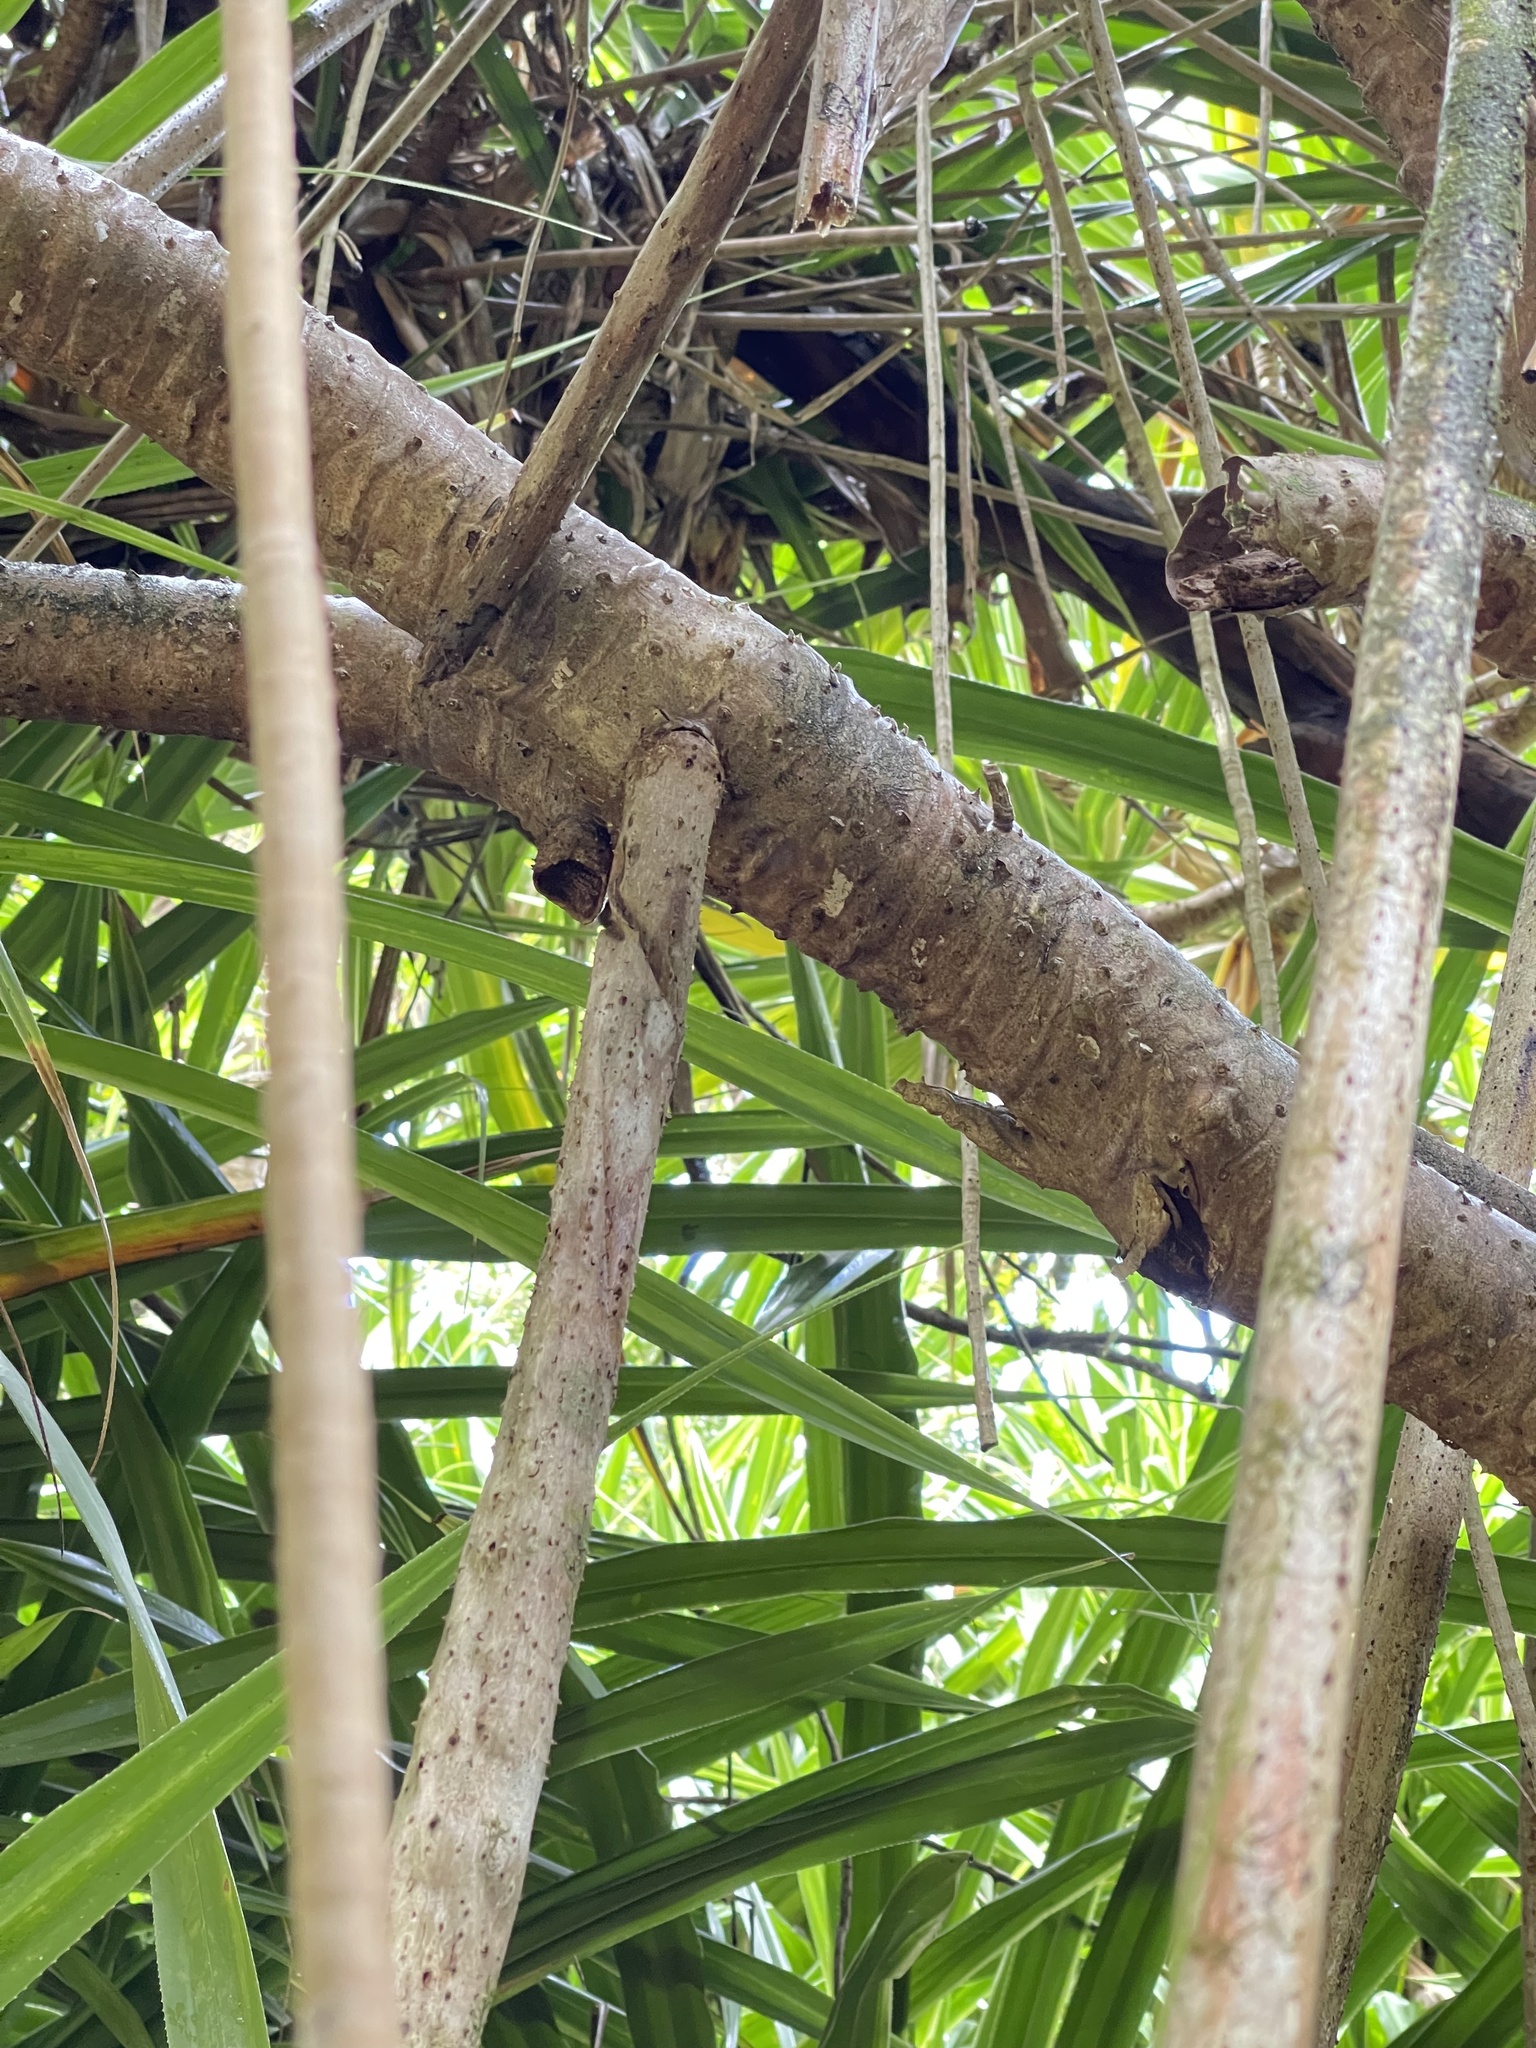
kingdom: Plantae
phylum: Tracheophyta
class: Liliopsida
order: Pandanales
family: Pandanaceae
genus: Pandanus
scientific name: Pandanus tectorius
